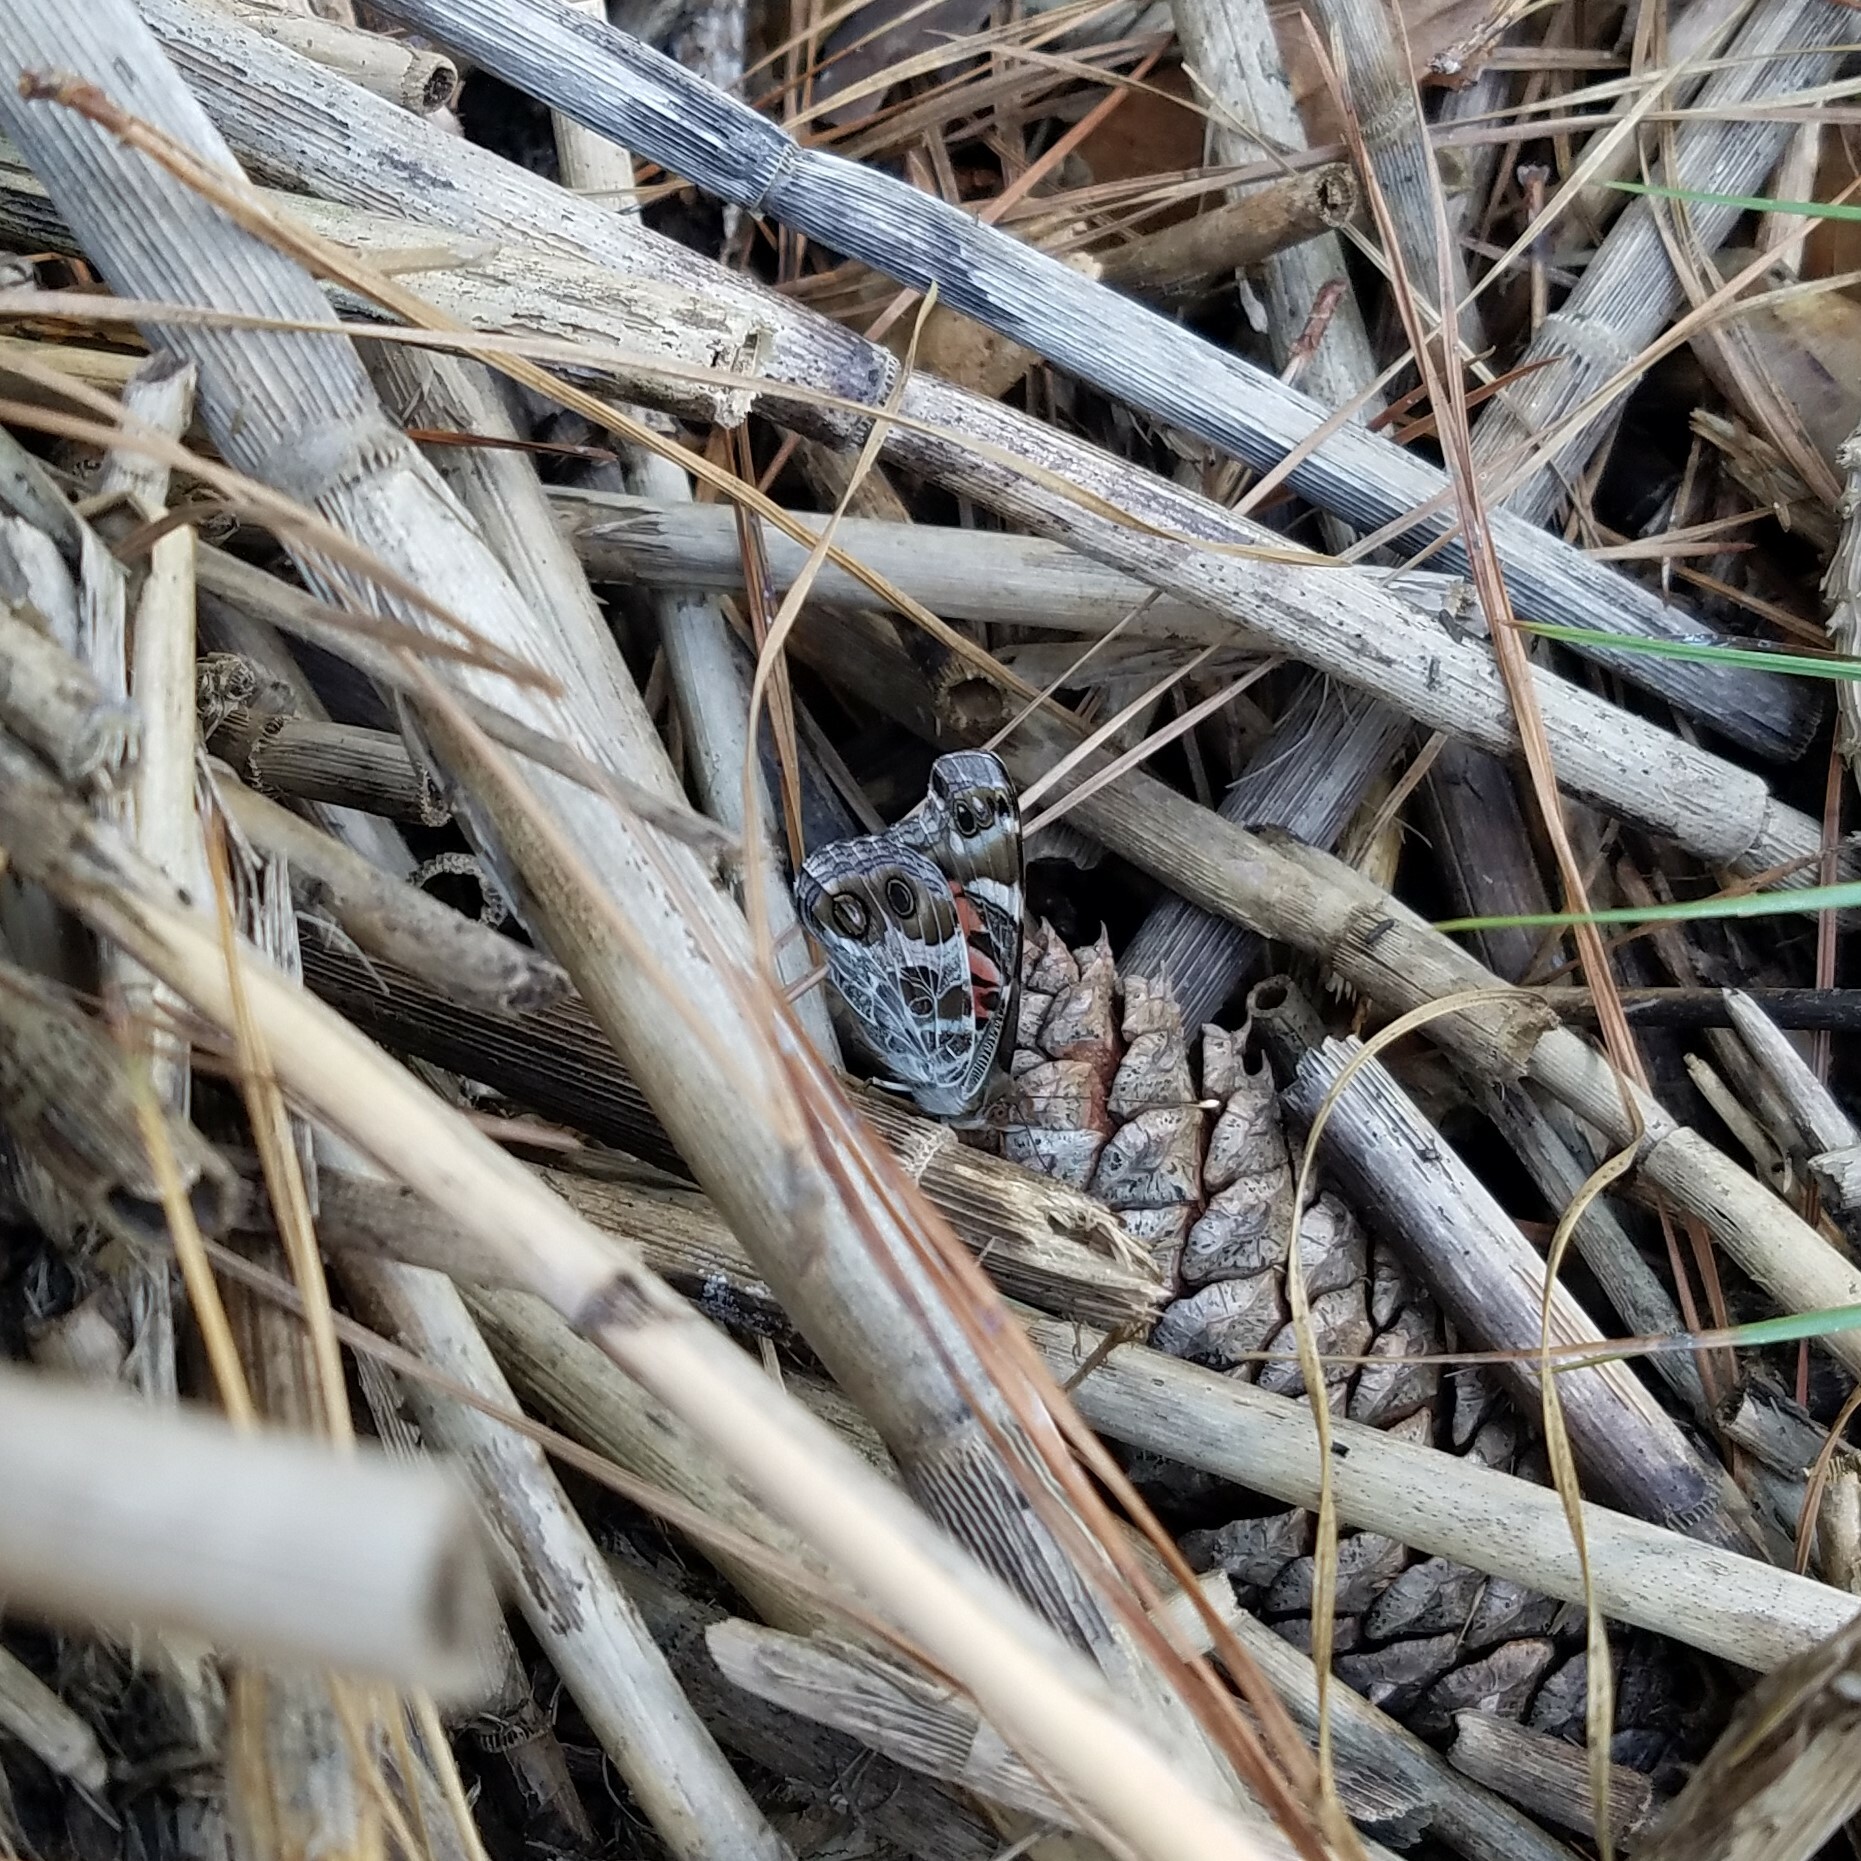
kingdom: Animalia
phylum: Arthropoda
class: Insecta
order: Lepidoptera
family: Nymphalidae
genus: Vanessa
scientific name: Vanessa virginiensis
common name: American lady
